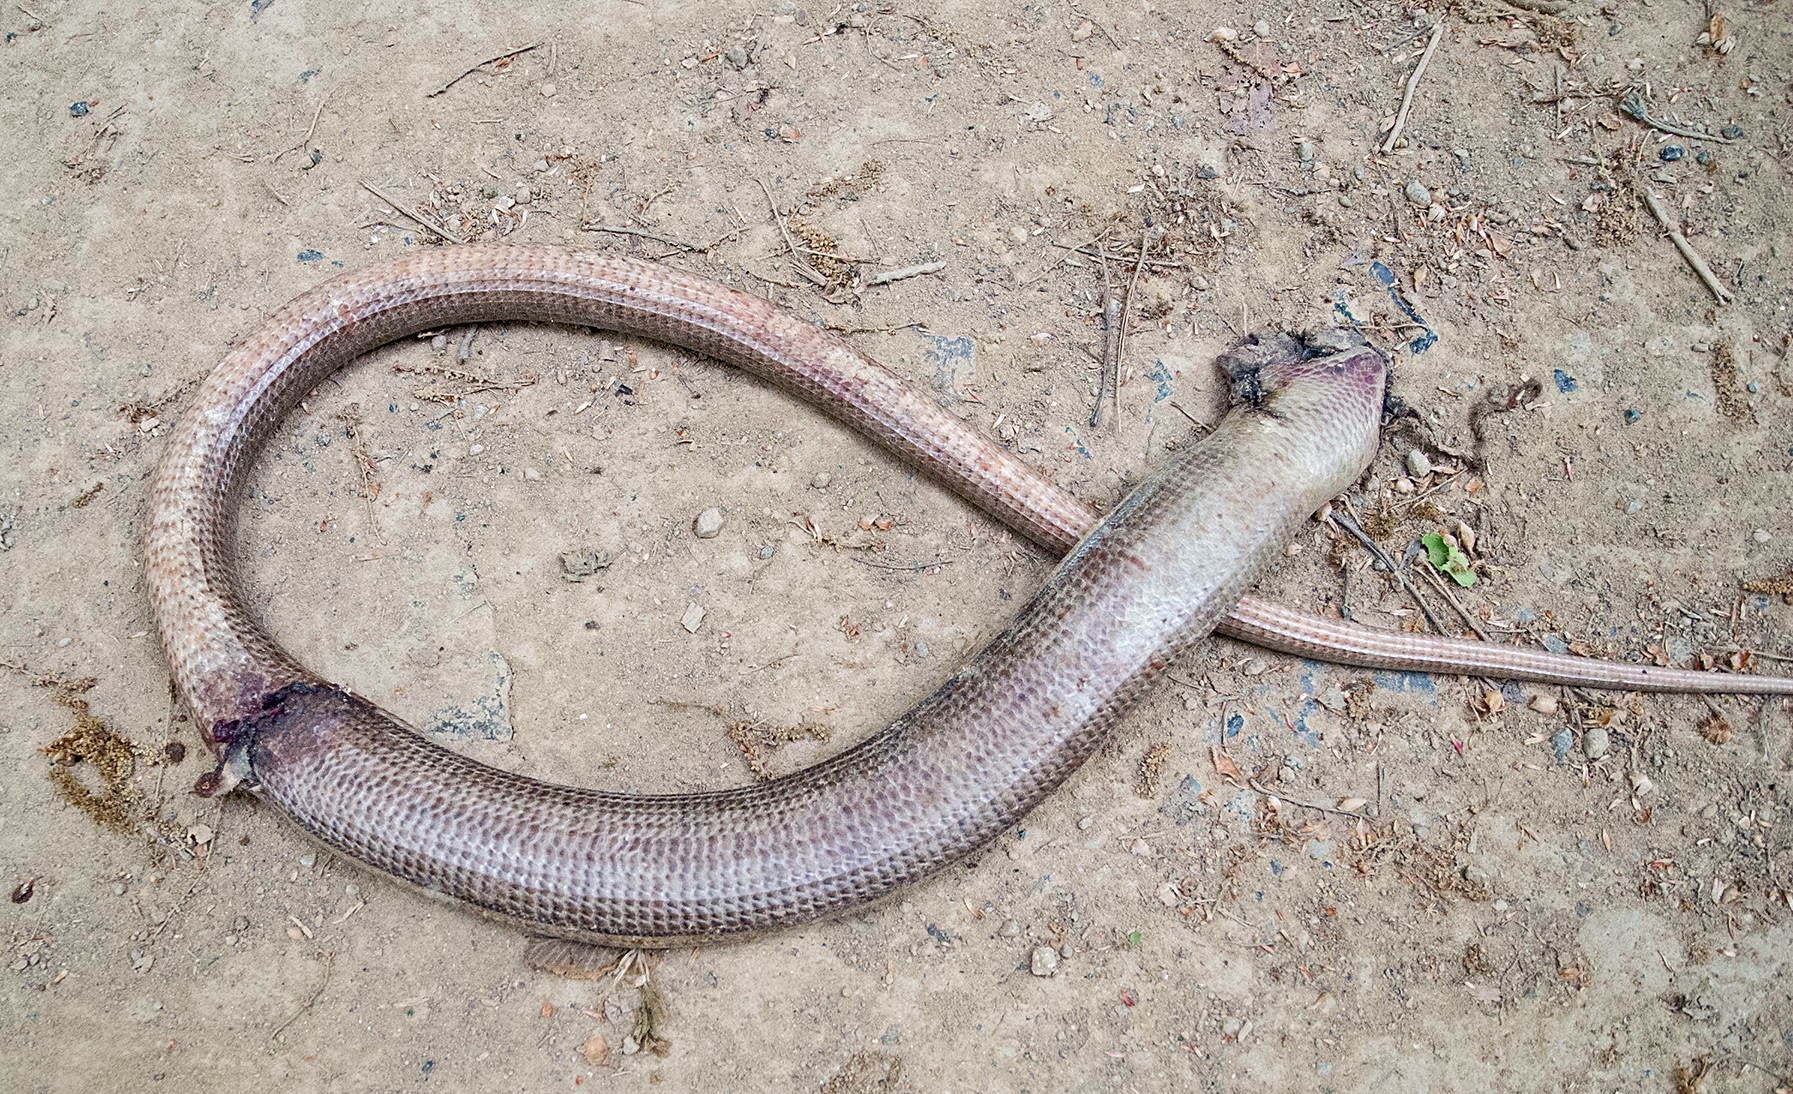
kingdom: Animalia
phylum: Chordata
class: Squamata
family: Anguidae
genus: Pseudopus
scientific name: Pseudopus apodus
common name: European glass lizard
